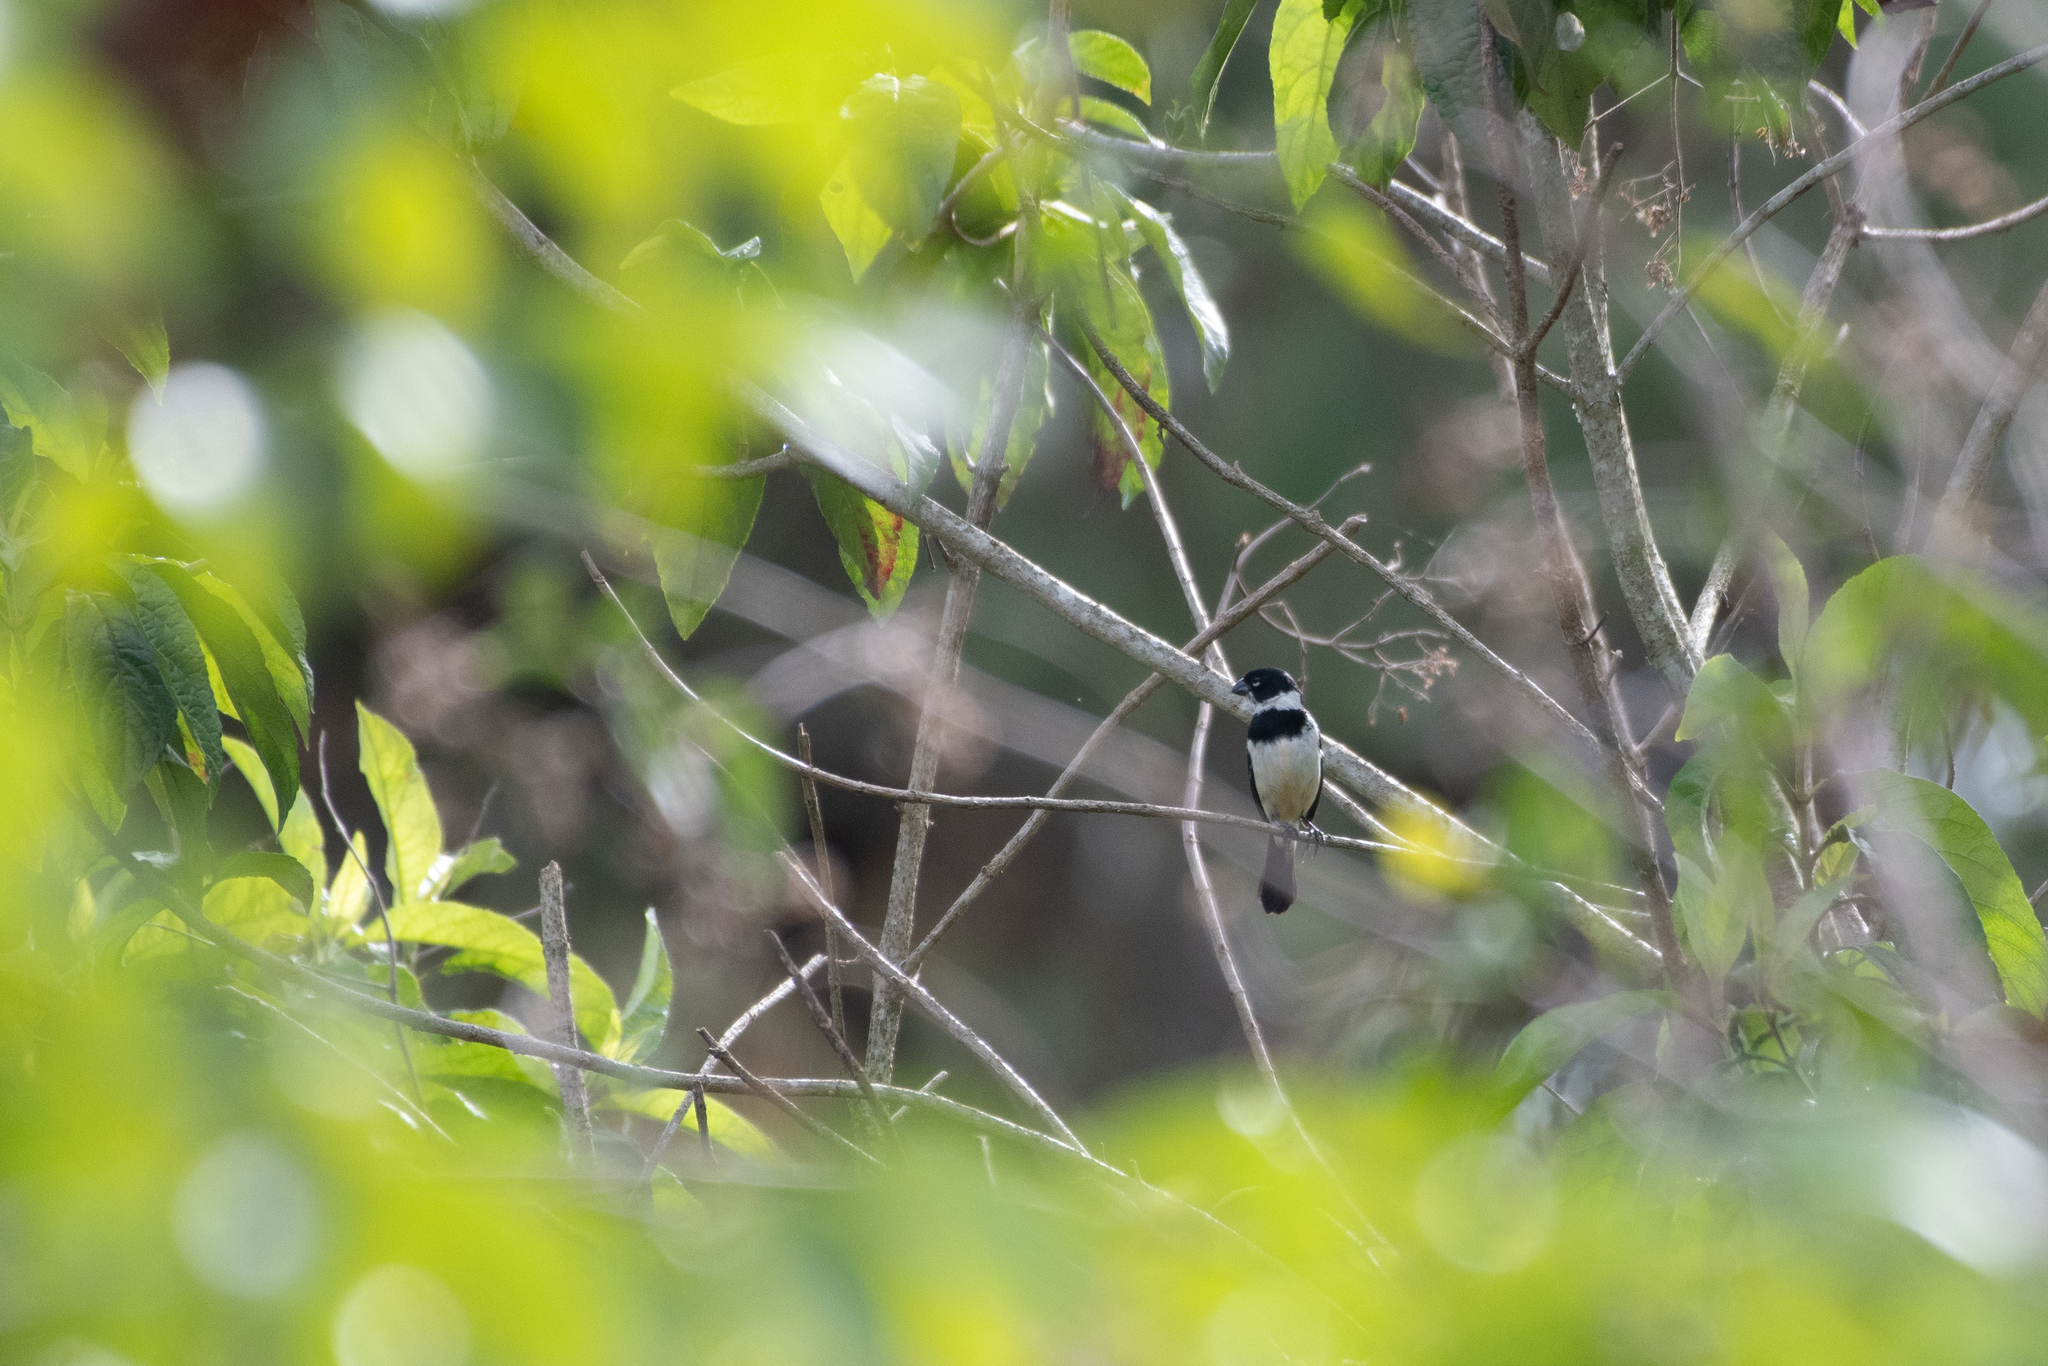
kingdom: Animalia
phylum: Chordata
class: Aves
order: Passeriformes
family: Thraupidae
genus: Sporophila
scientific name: Sporophila morelleti
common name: Morelet's seedeater
